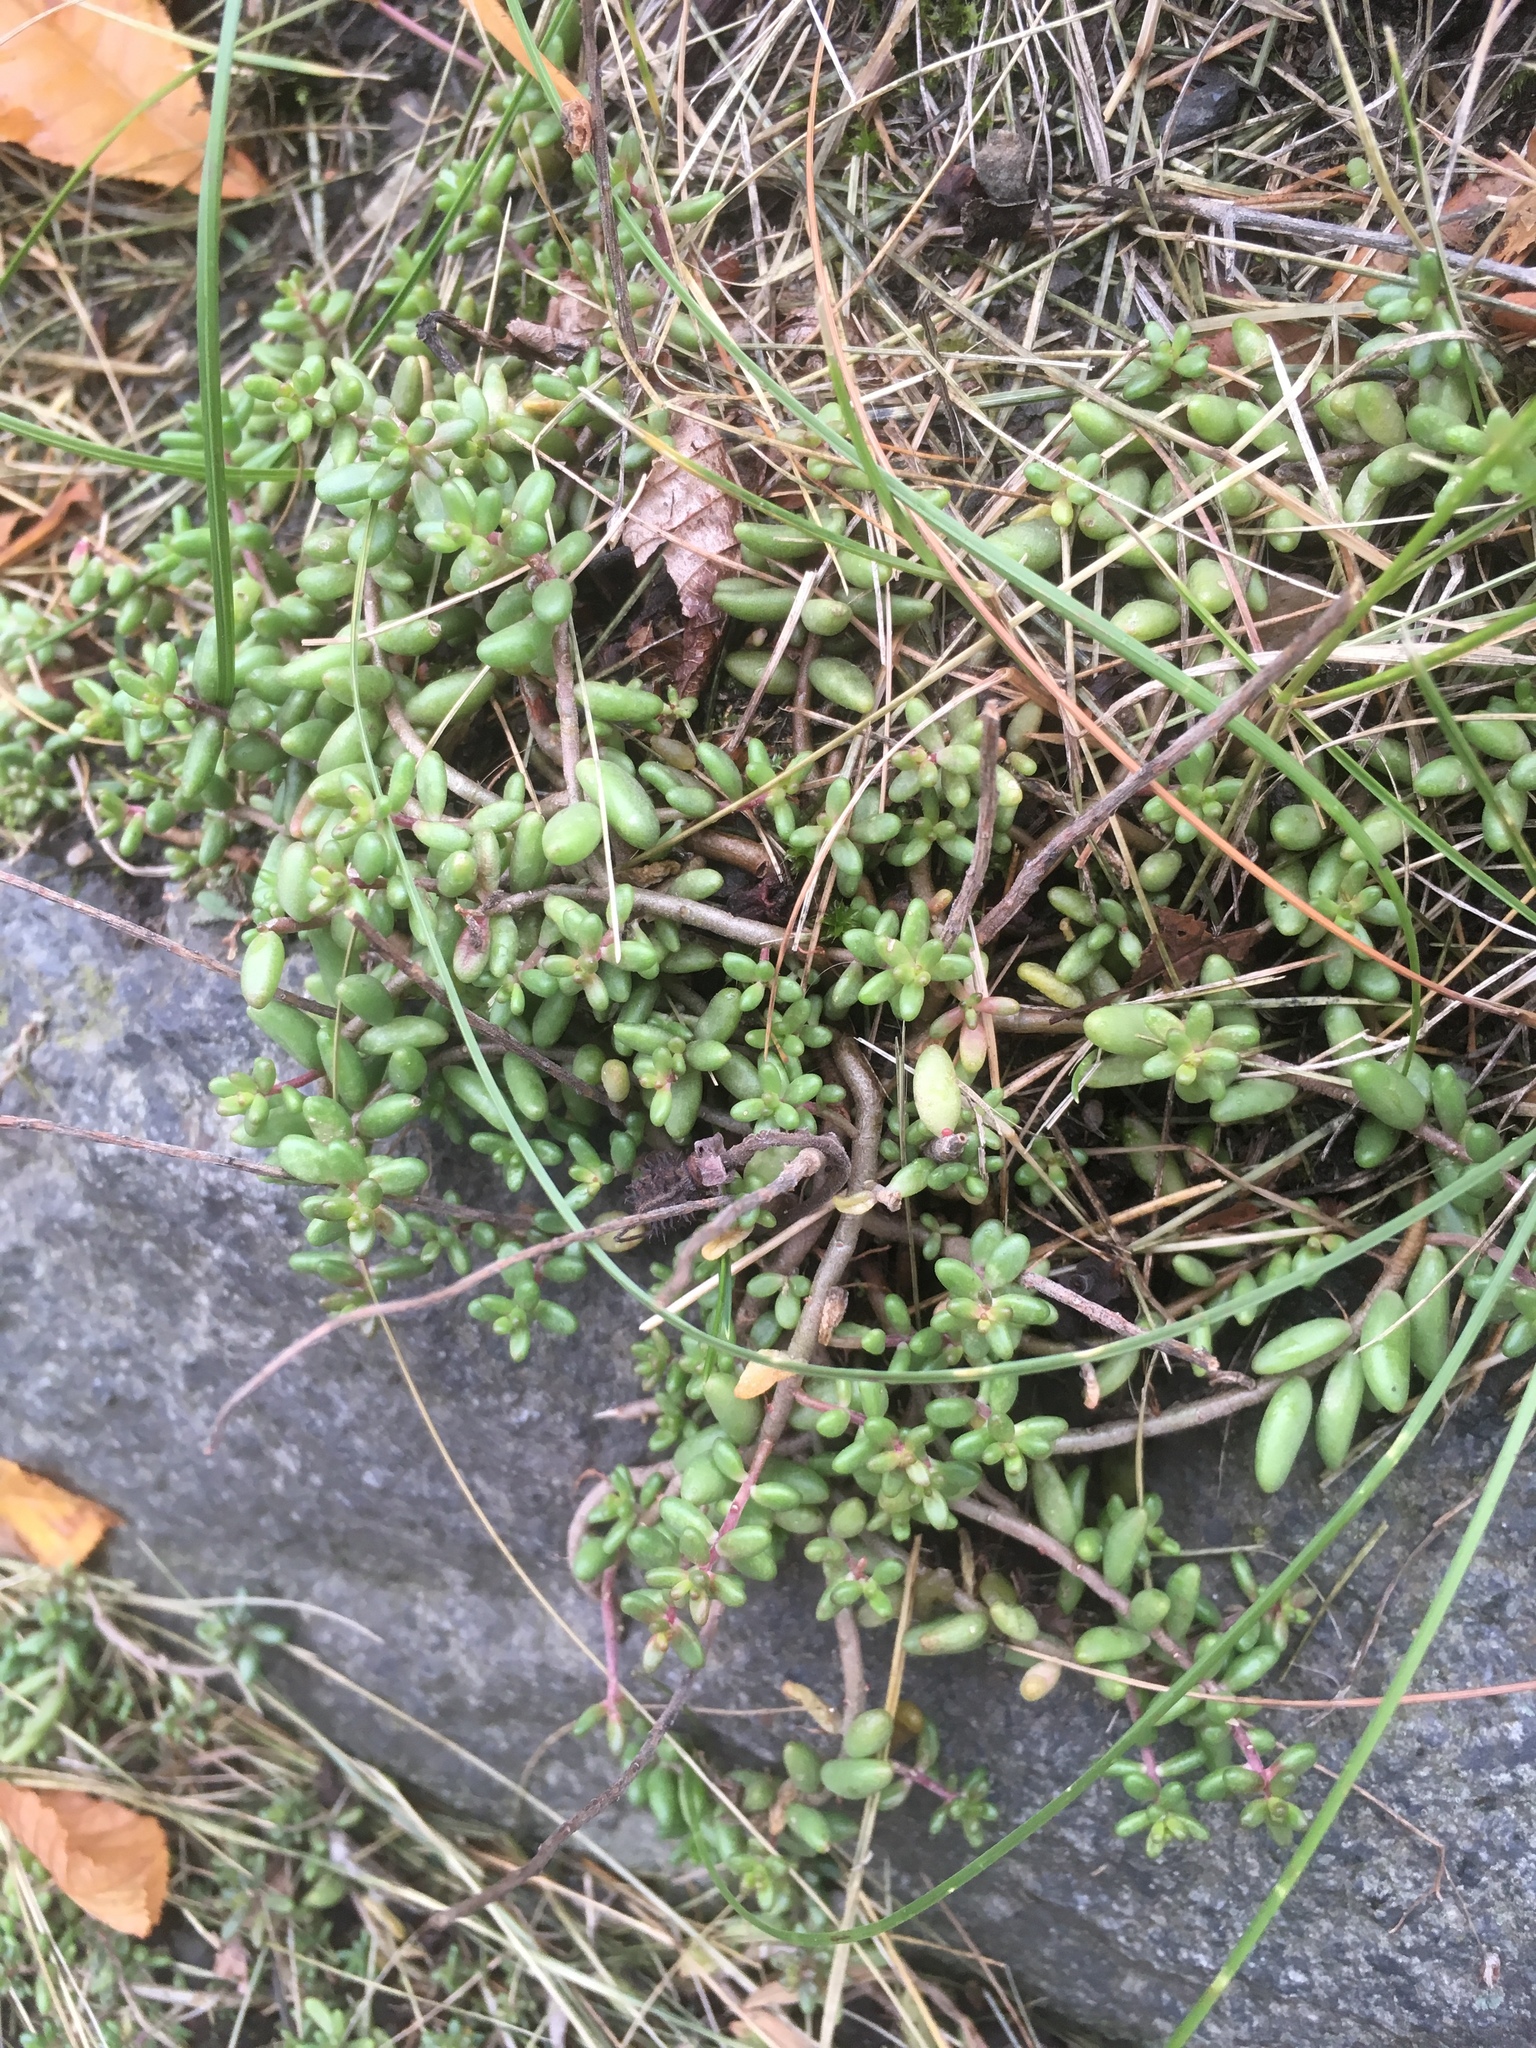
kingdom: Plantae
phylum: Tracheophyta
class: Magnoliopsida
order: Saxifragales
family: Crassulaceae
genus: Sedum
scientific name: Sedum album
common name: White stonecrop
